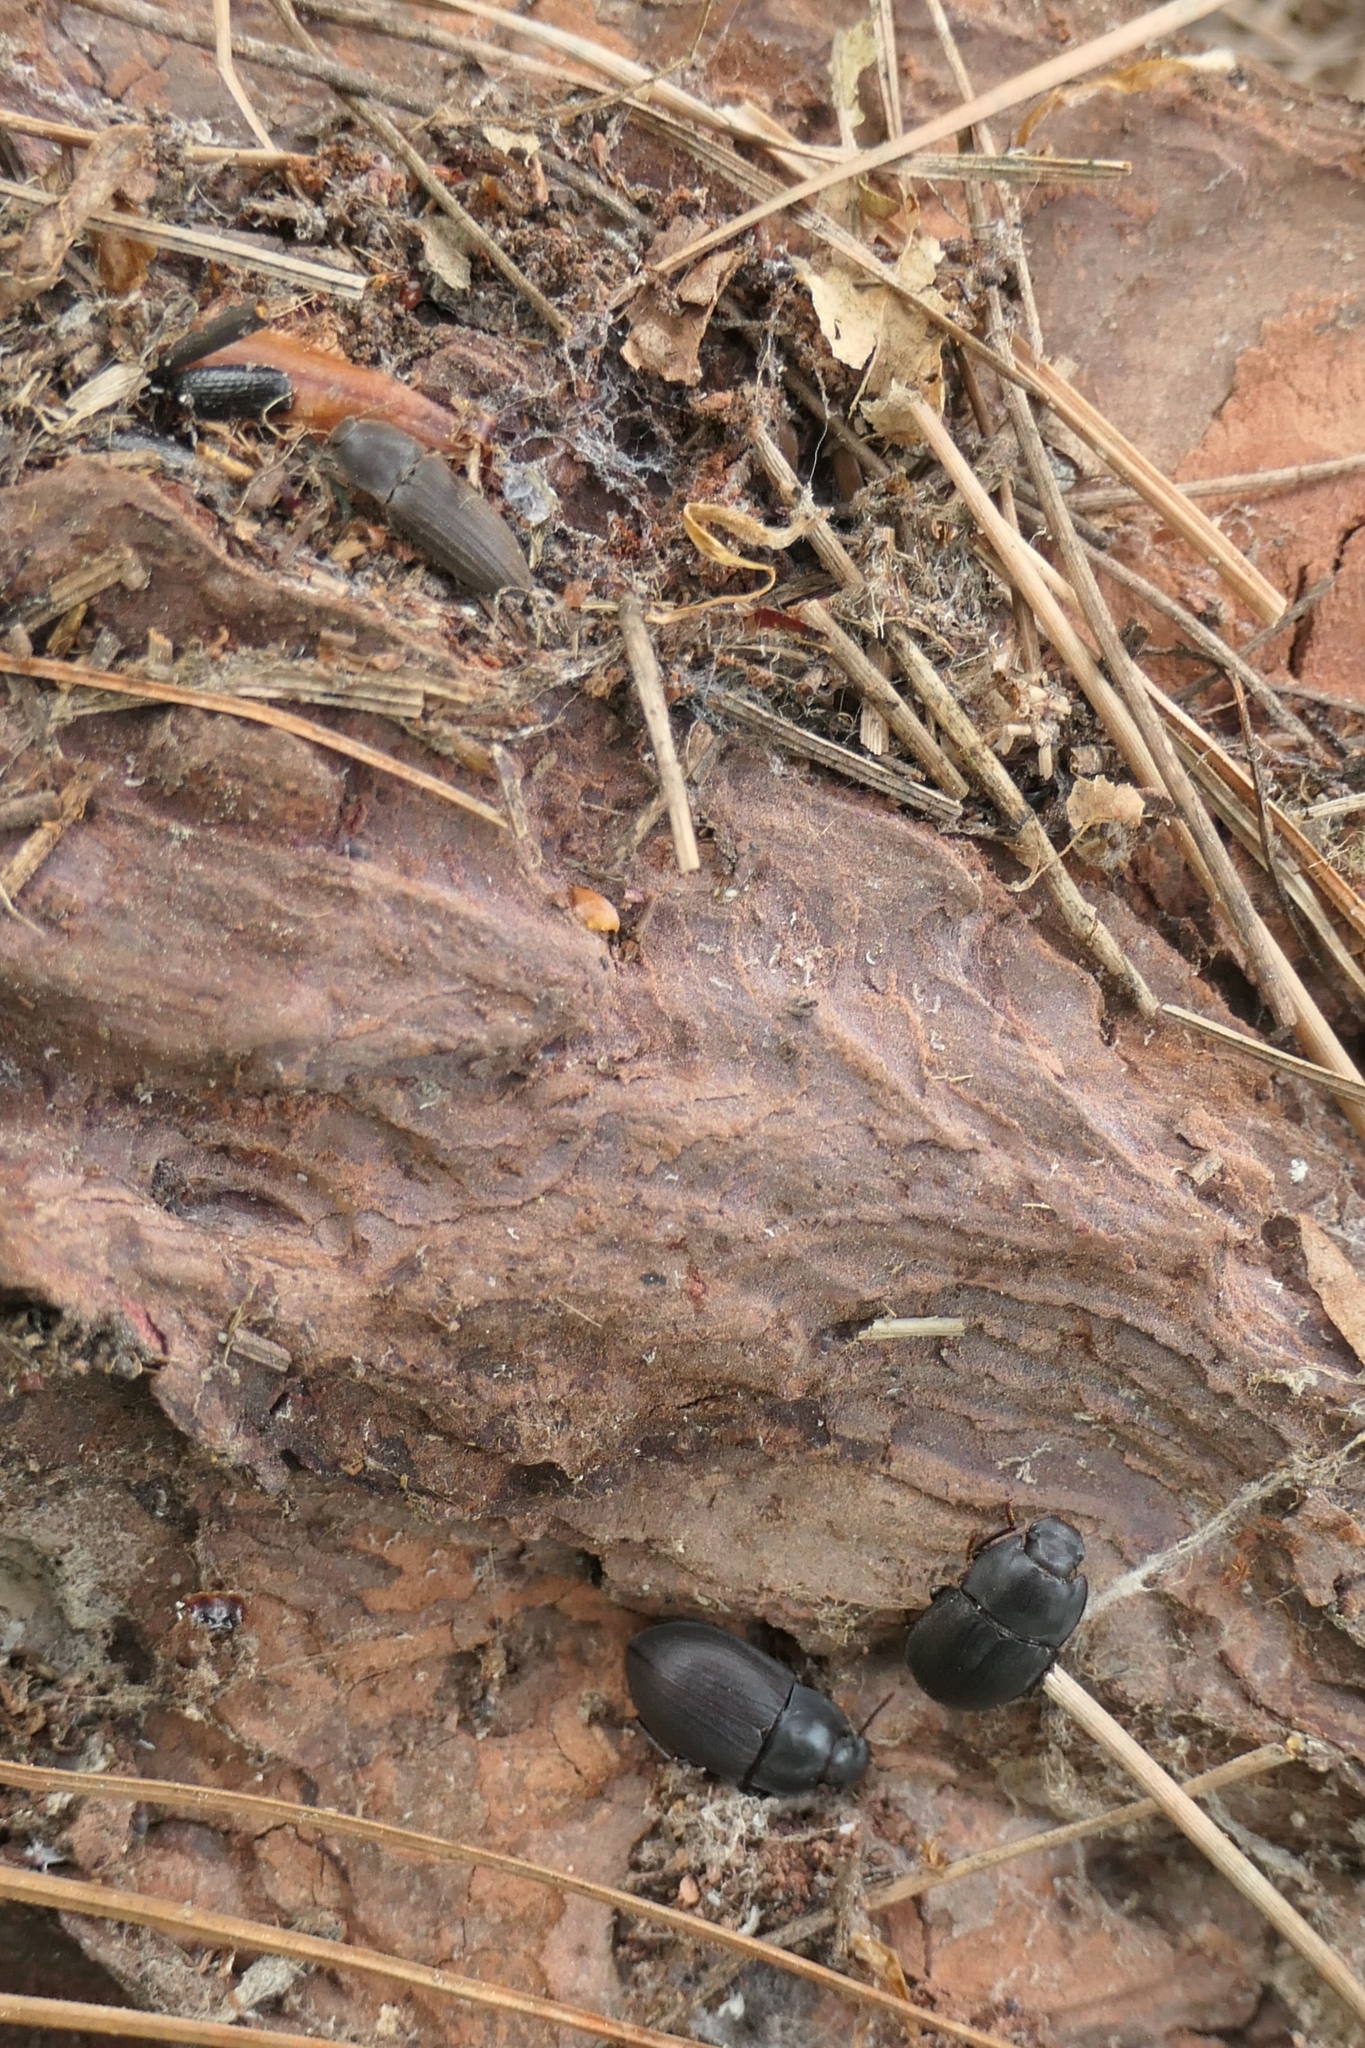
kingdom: Animalia
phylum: Arthropoda
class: Insecta
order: Coleoptera
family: Elateridae
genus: Agrypnus
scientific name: Agrypnus
